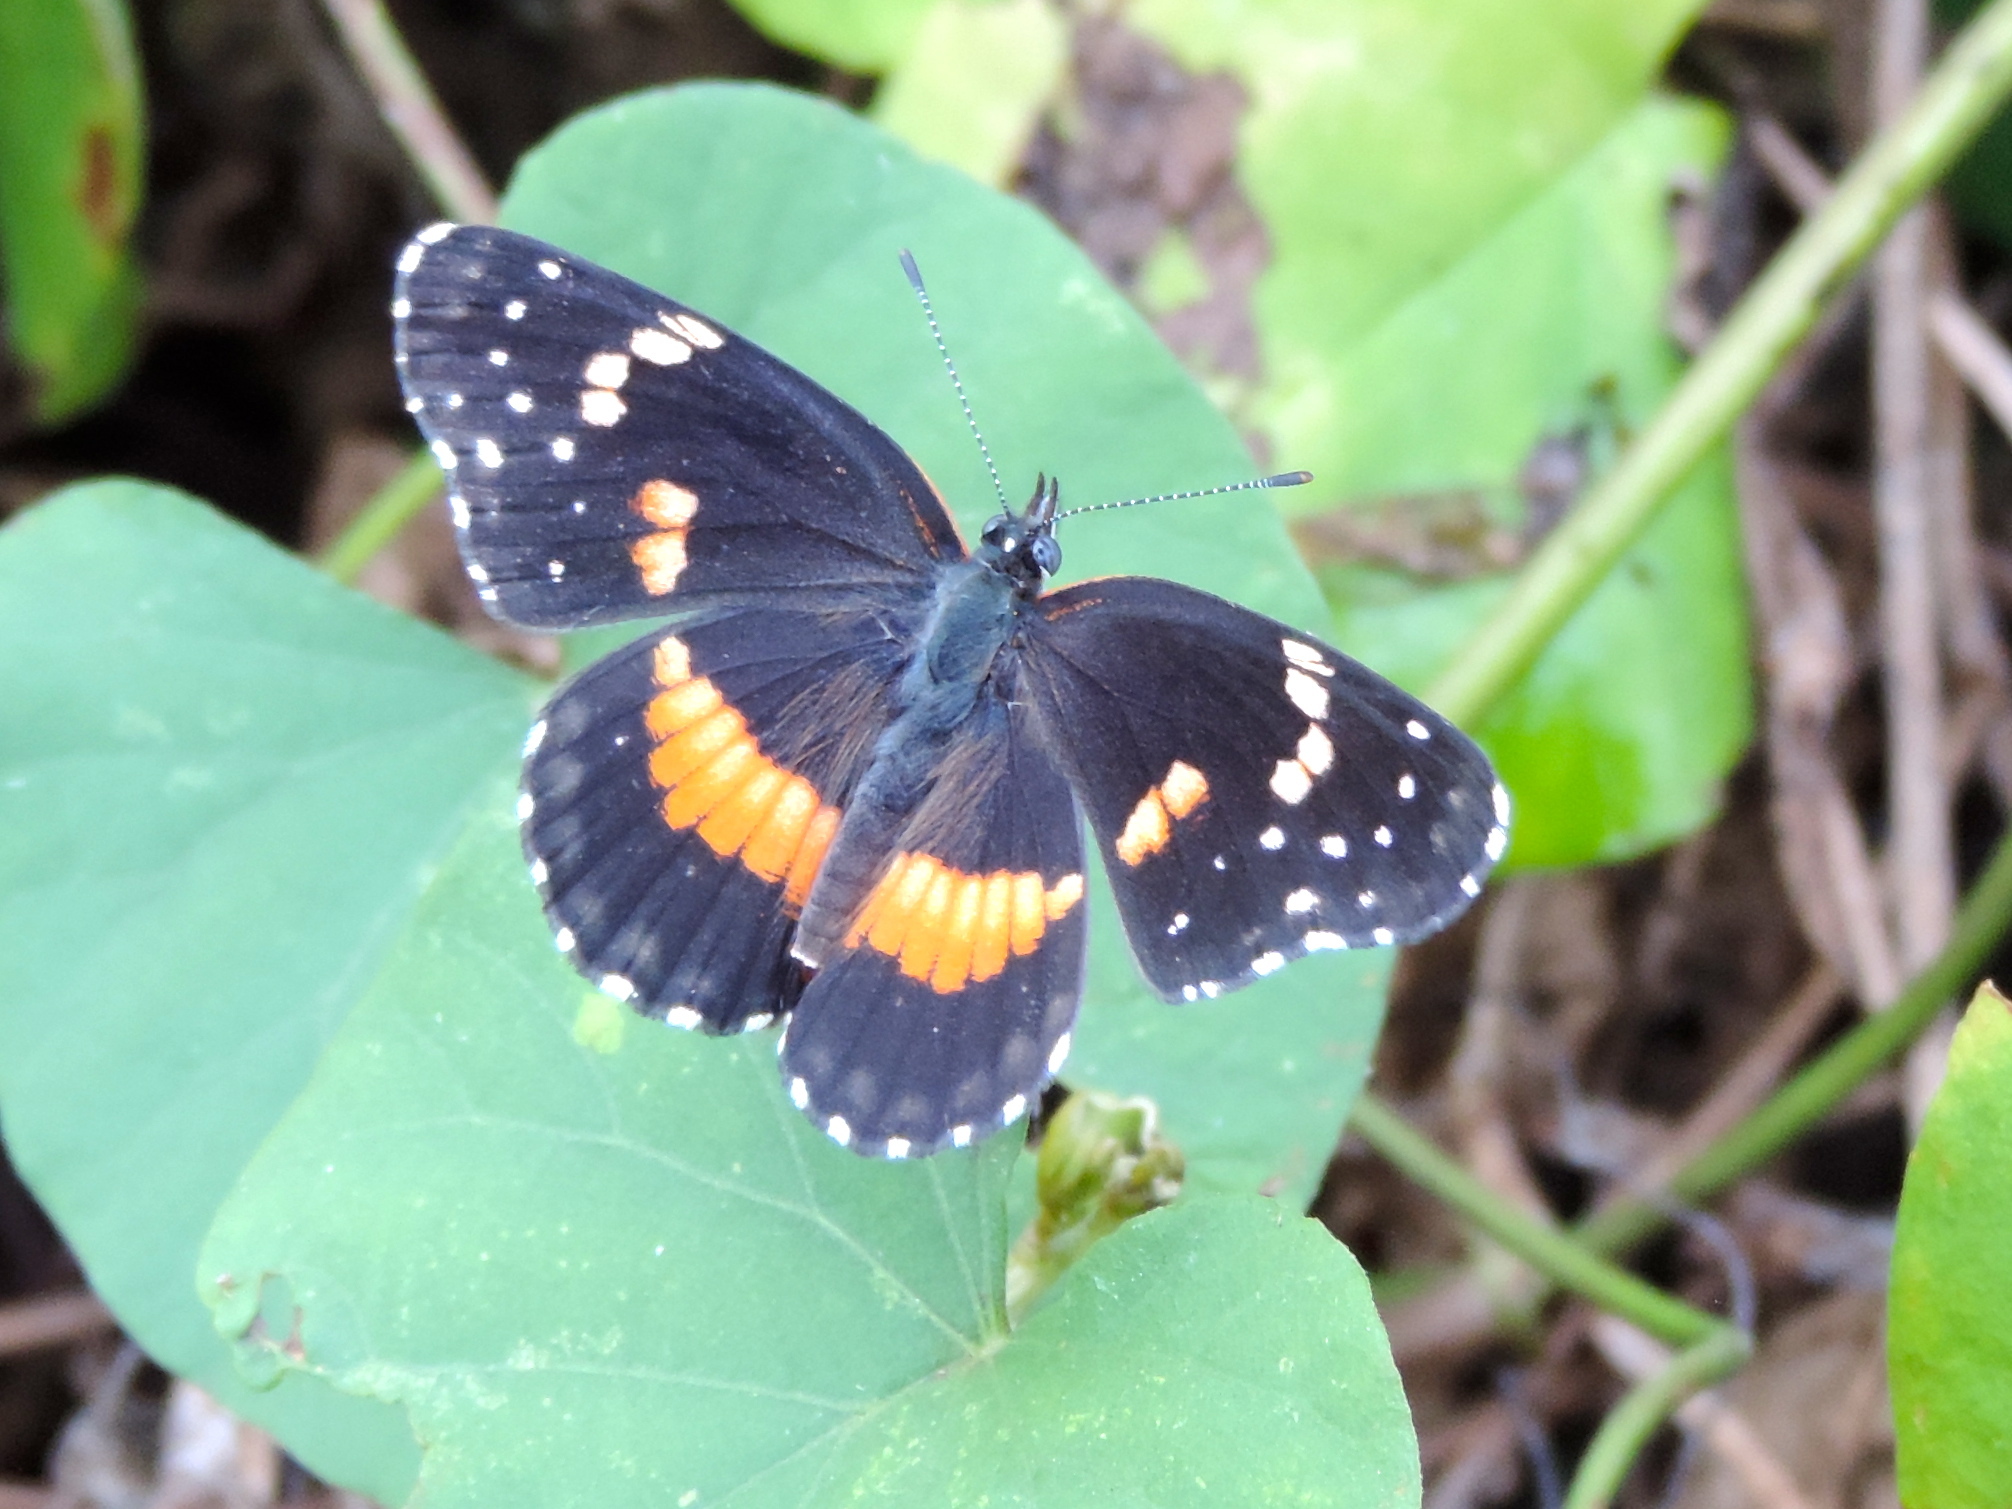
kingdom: Animalia
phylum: Arthropoda
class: Insecta
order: Lepidoptera
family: Nymphalidae
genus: Chlosyne
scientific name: Chlosyne lacinia
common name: Bordered patch
